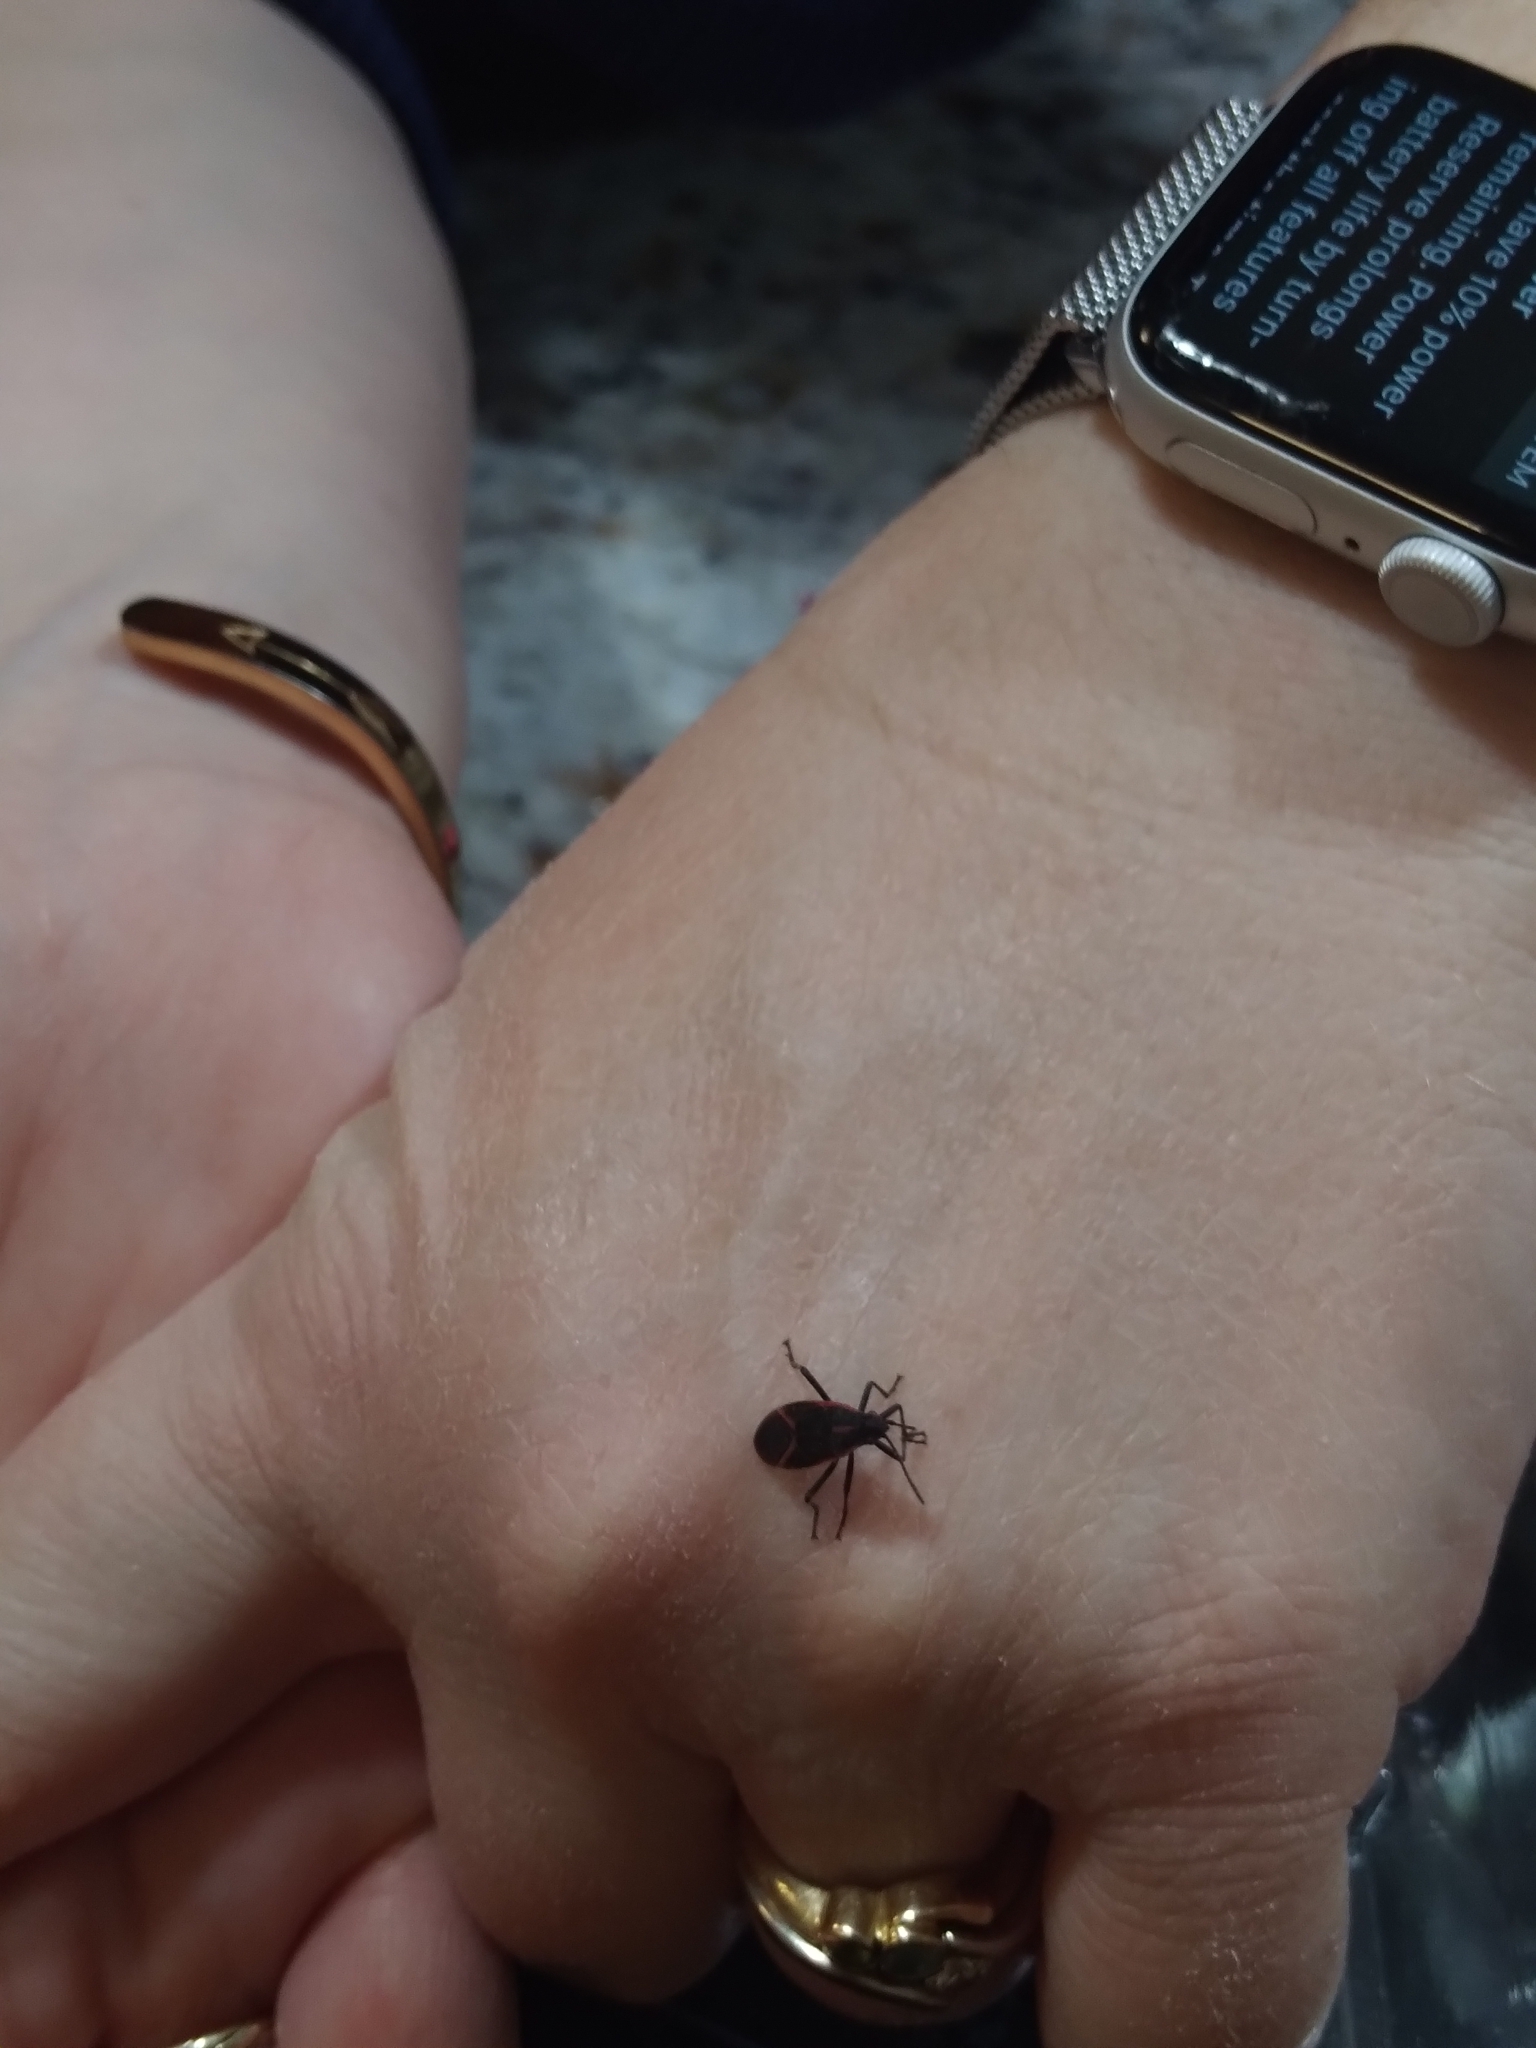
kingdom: Animalia
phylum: Arthropoda
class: Insecta
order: Hemiptera
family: Rhopalidae
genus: Boisea
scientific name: Boisea trivittata
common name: Boxelder bug
